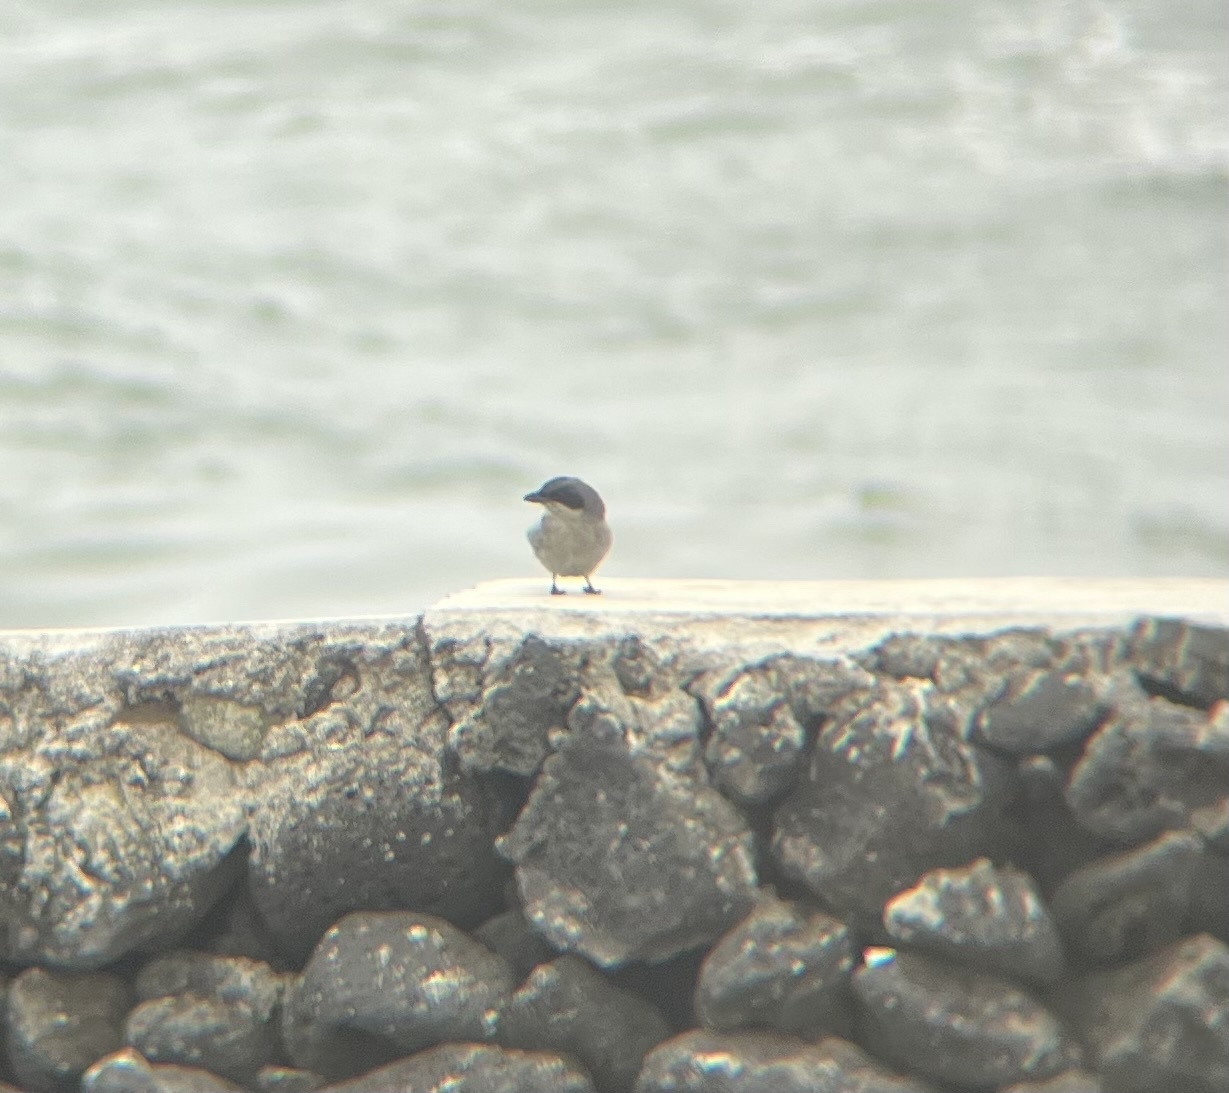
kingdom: Animalia
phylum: Chordata
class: Aves
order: Passeriformes
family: Laniidae
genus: Lanius
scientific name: Lanius ludovicianus
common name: Loggerhead shrike
